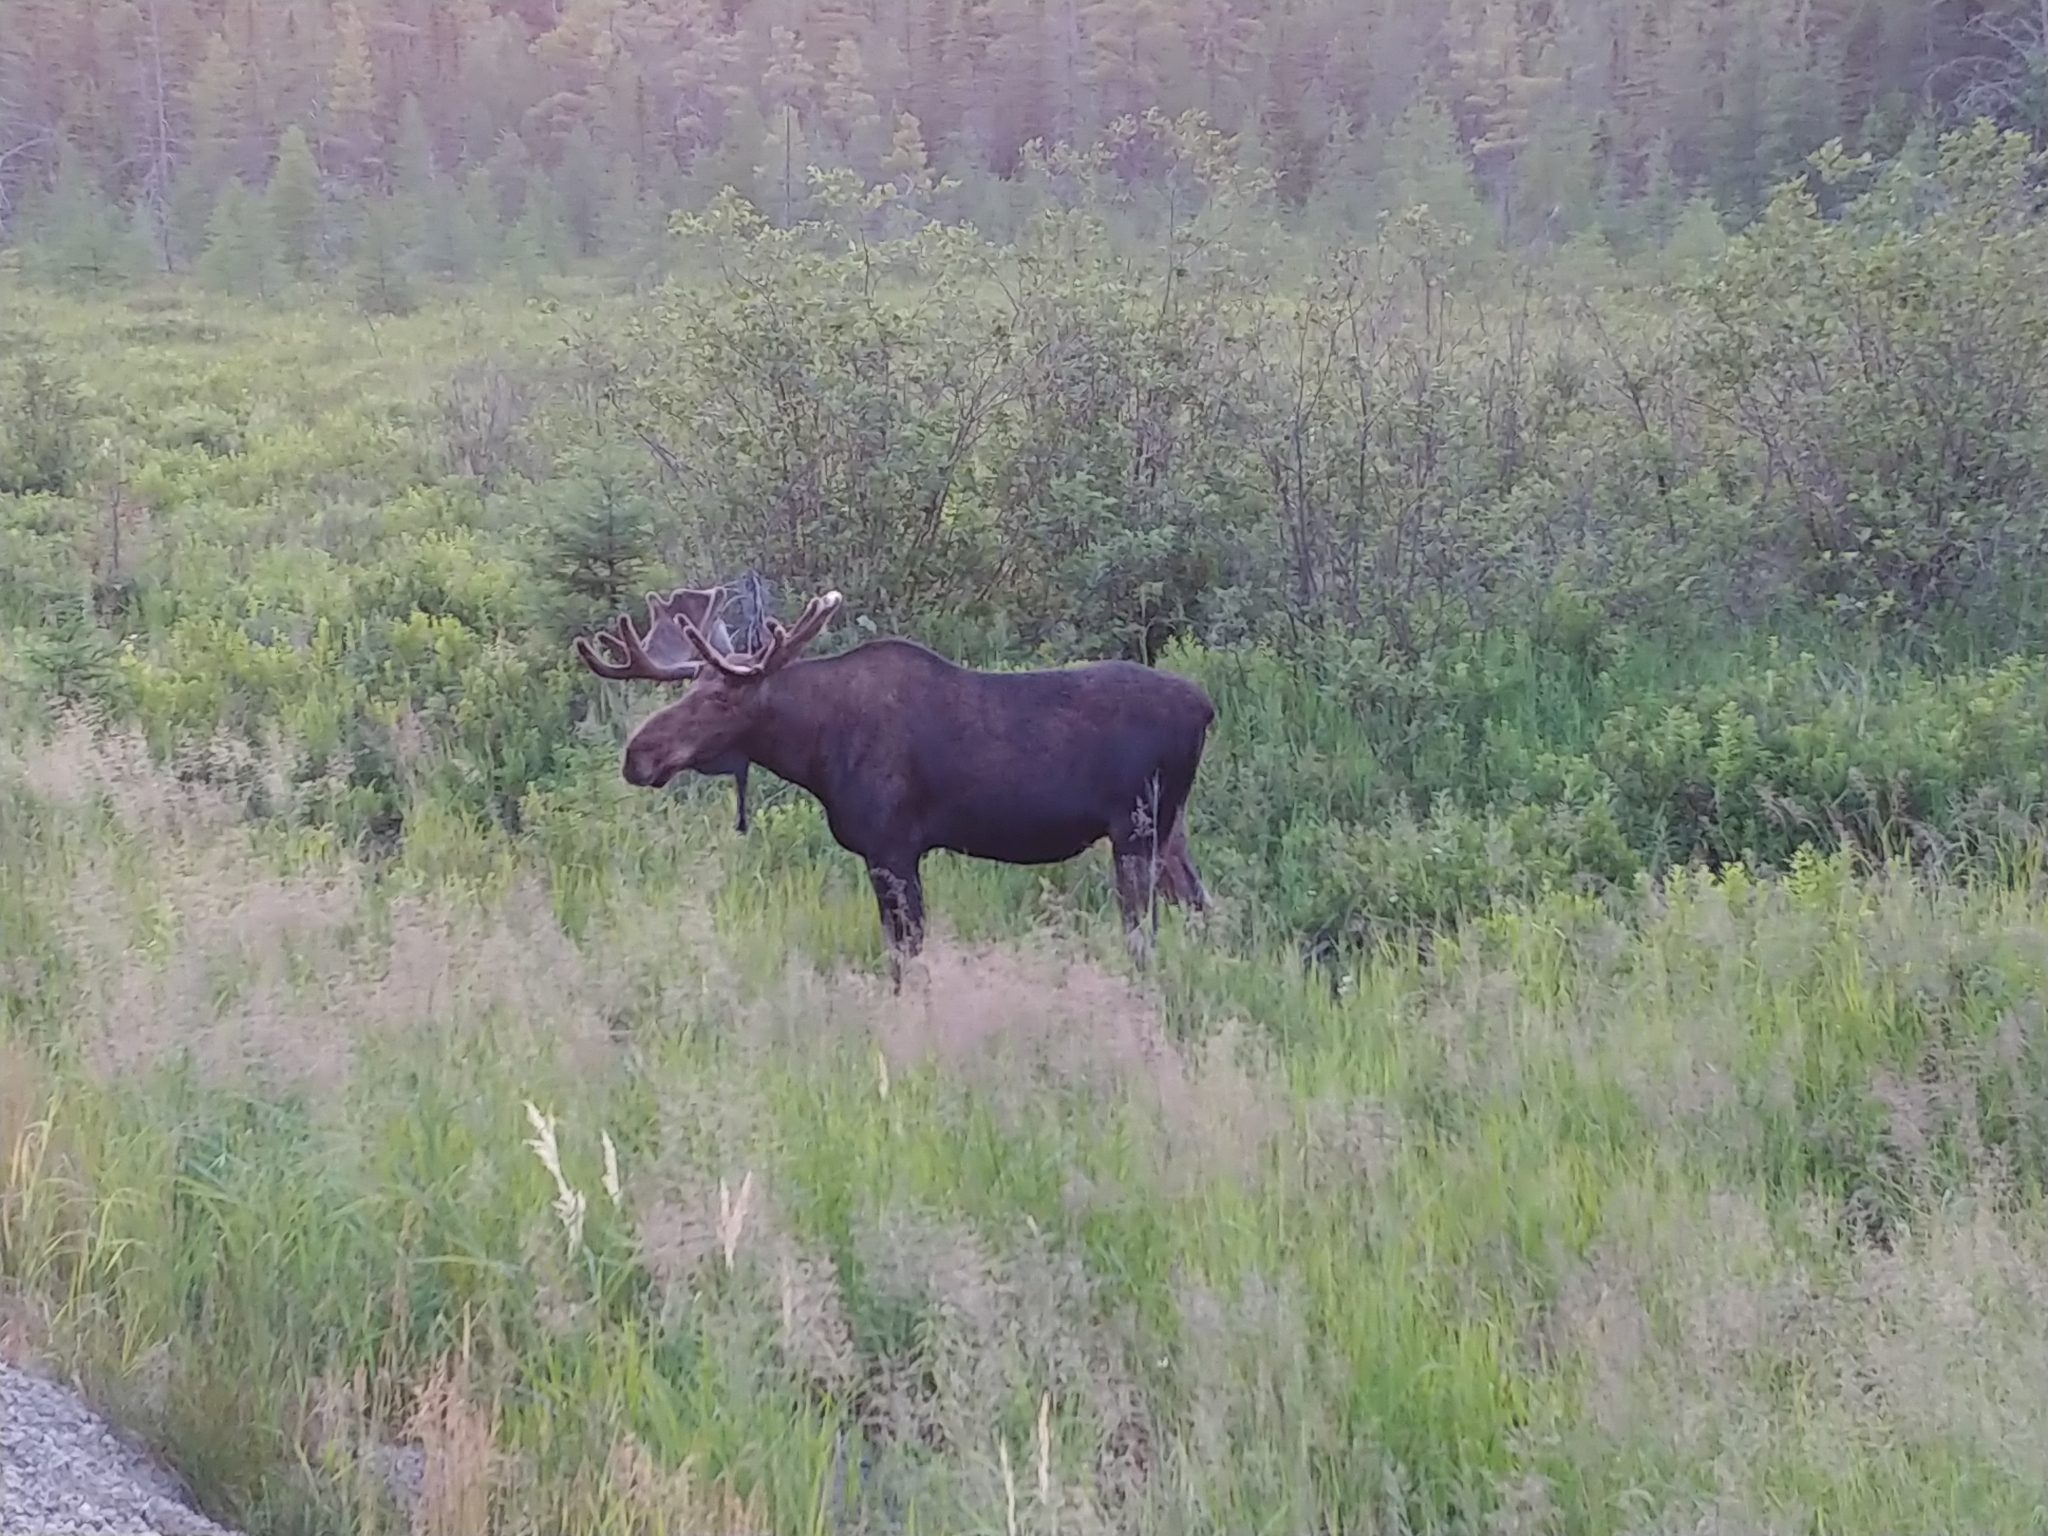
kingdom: Animalia
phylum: Chordata
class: Mammalia
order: Artiodactyla
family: Cervidae
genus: Alces
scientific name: Alces alces
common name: Moose
